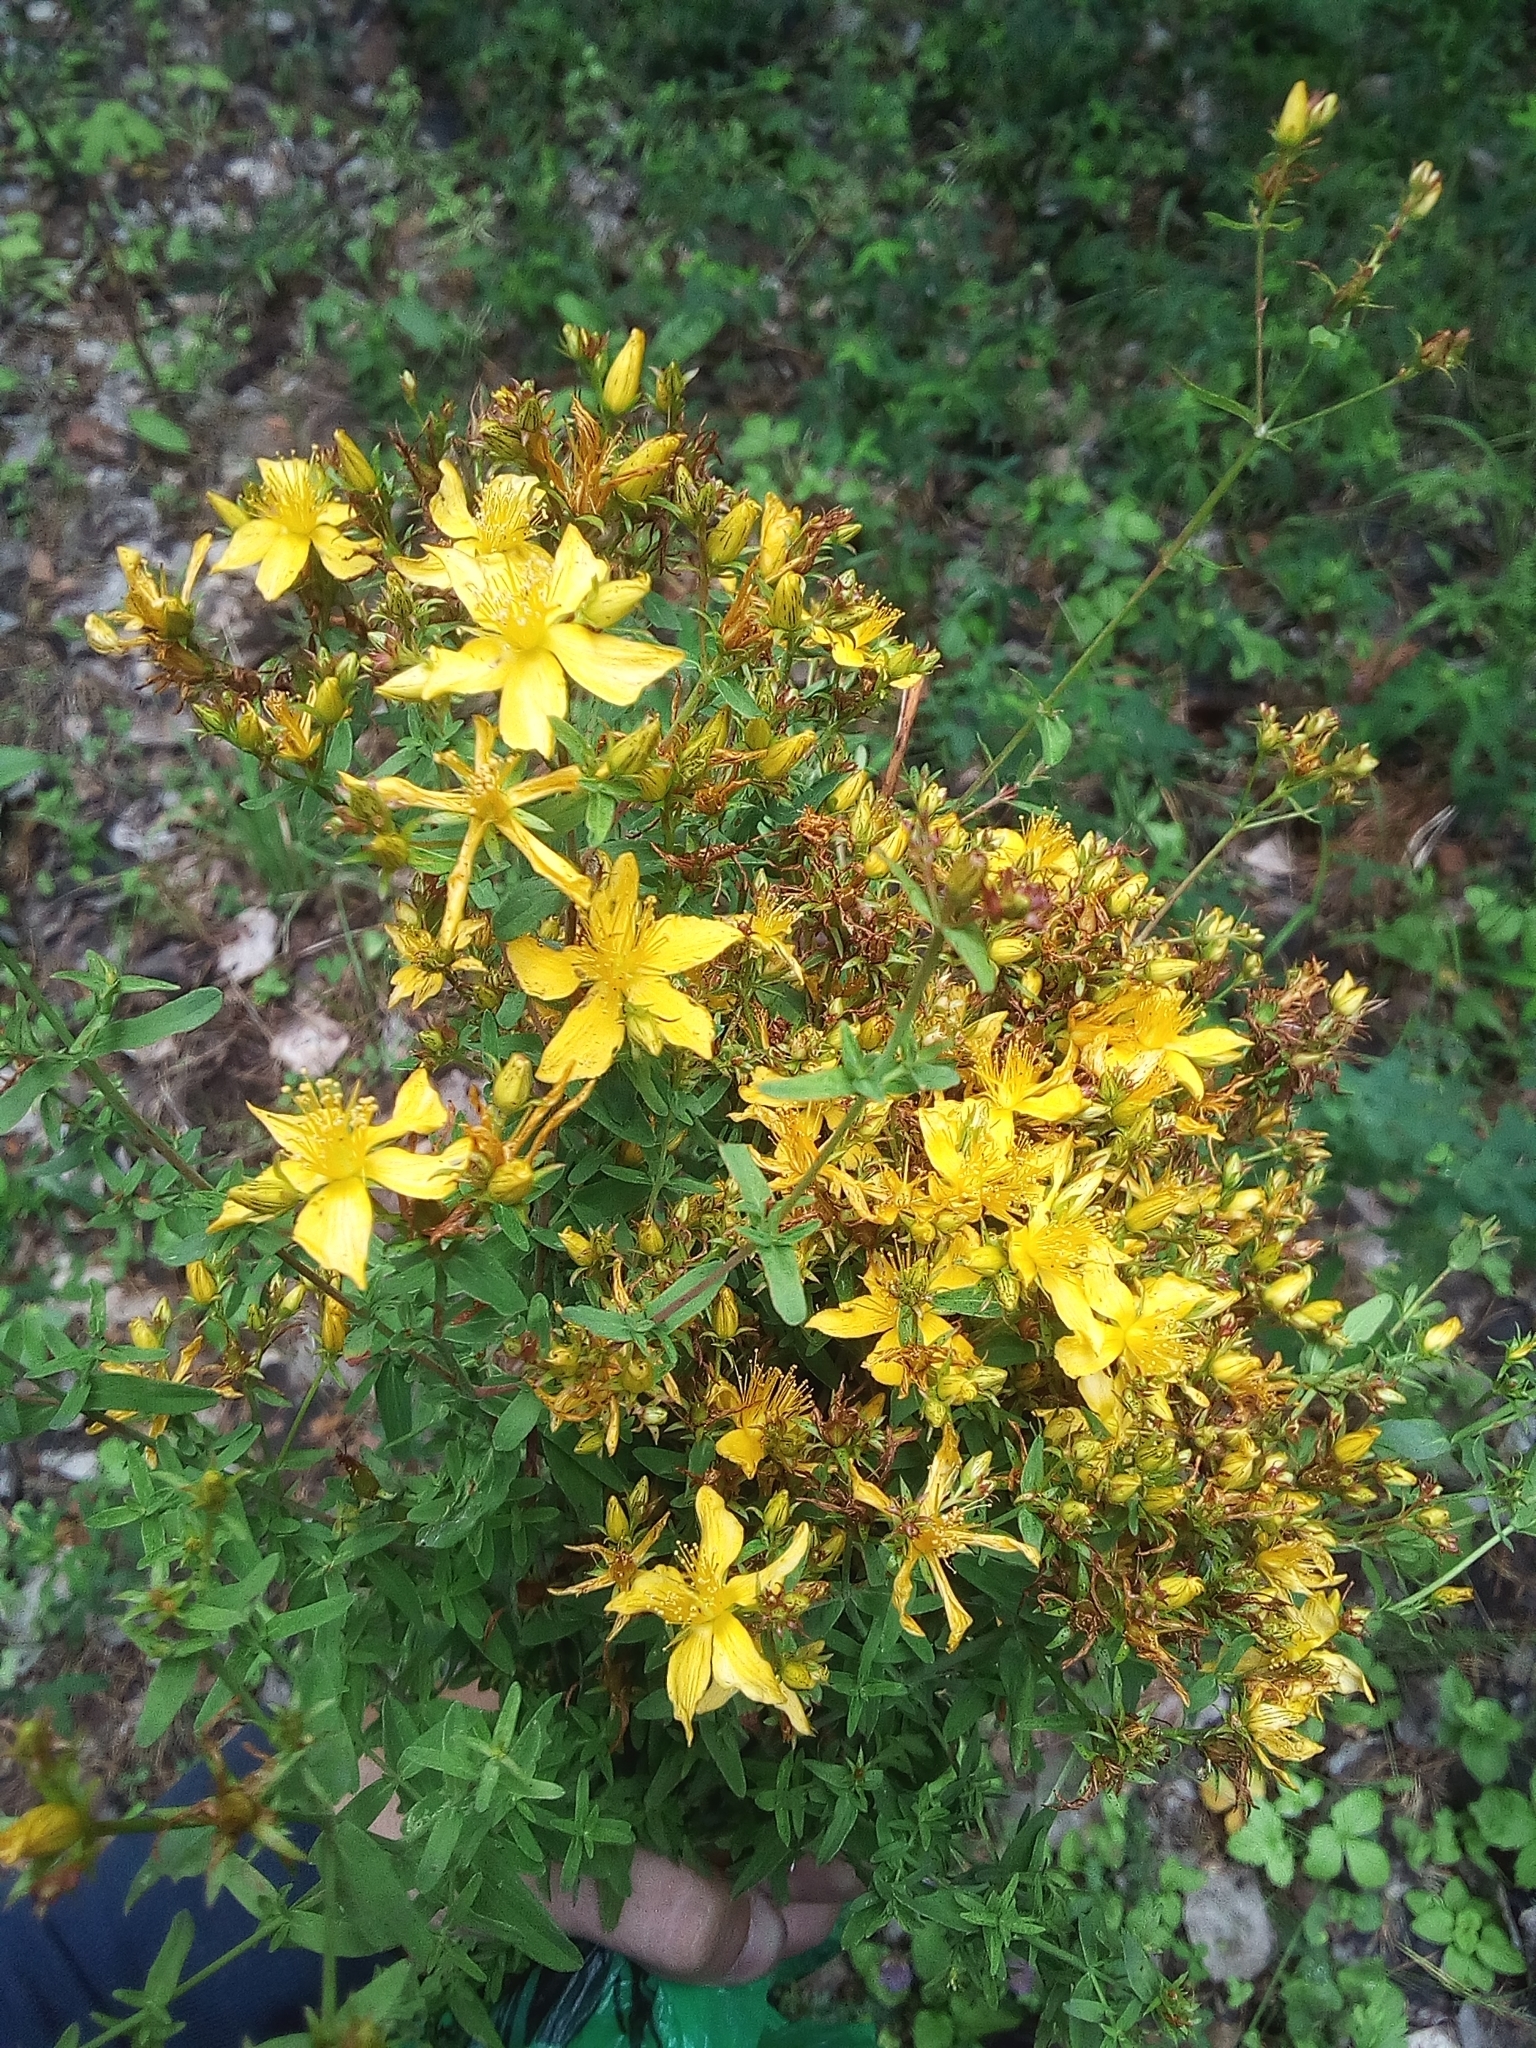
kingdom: Plantae
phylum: Tracheophyta
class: Magnoliopsida
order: Malpighiales
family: Hypericaceae
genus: Hypericum
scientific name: Hypericum perforatum
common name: Common st. johnswort
